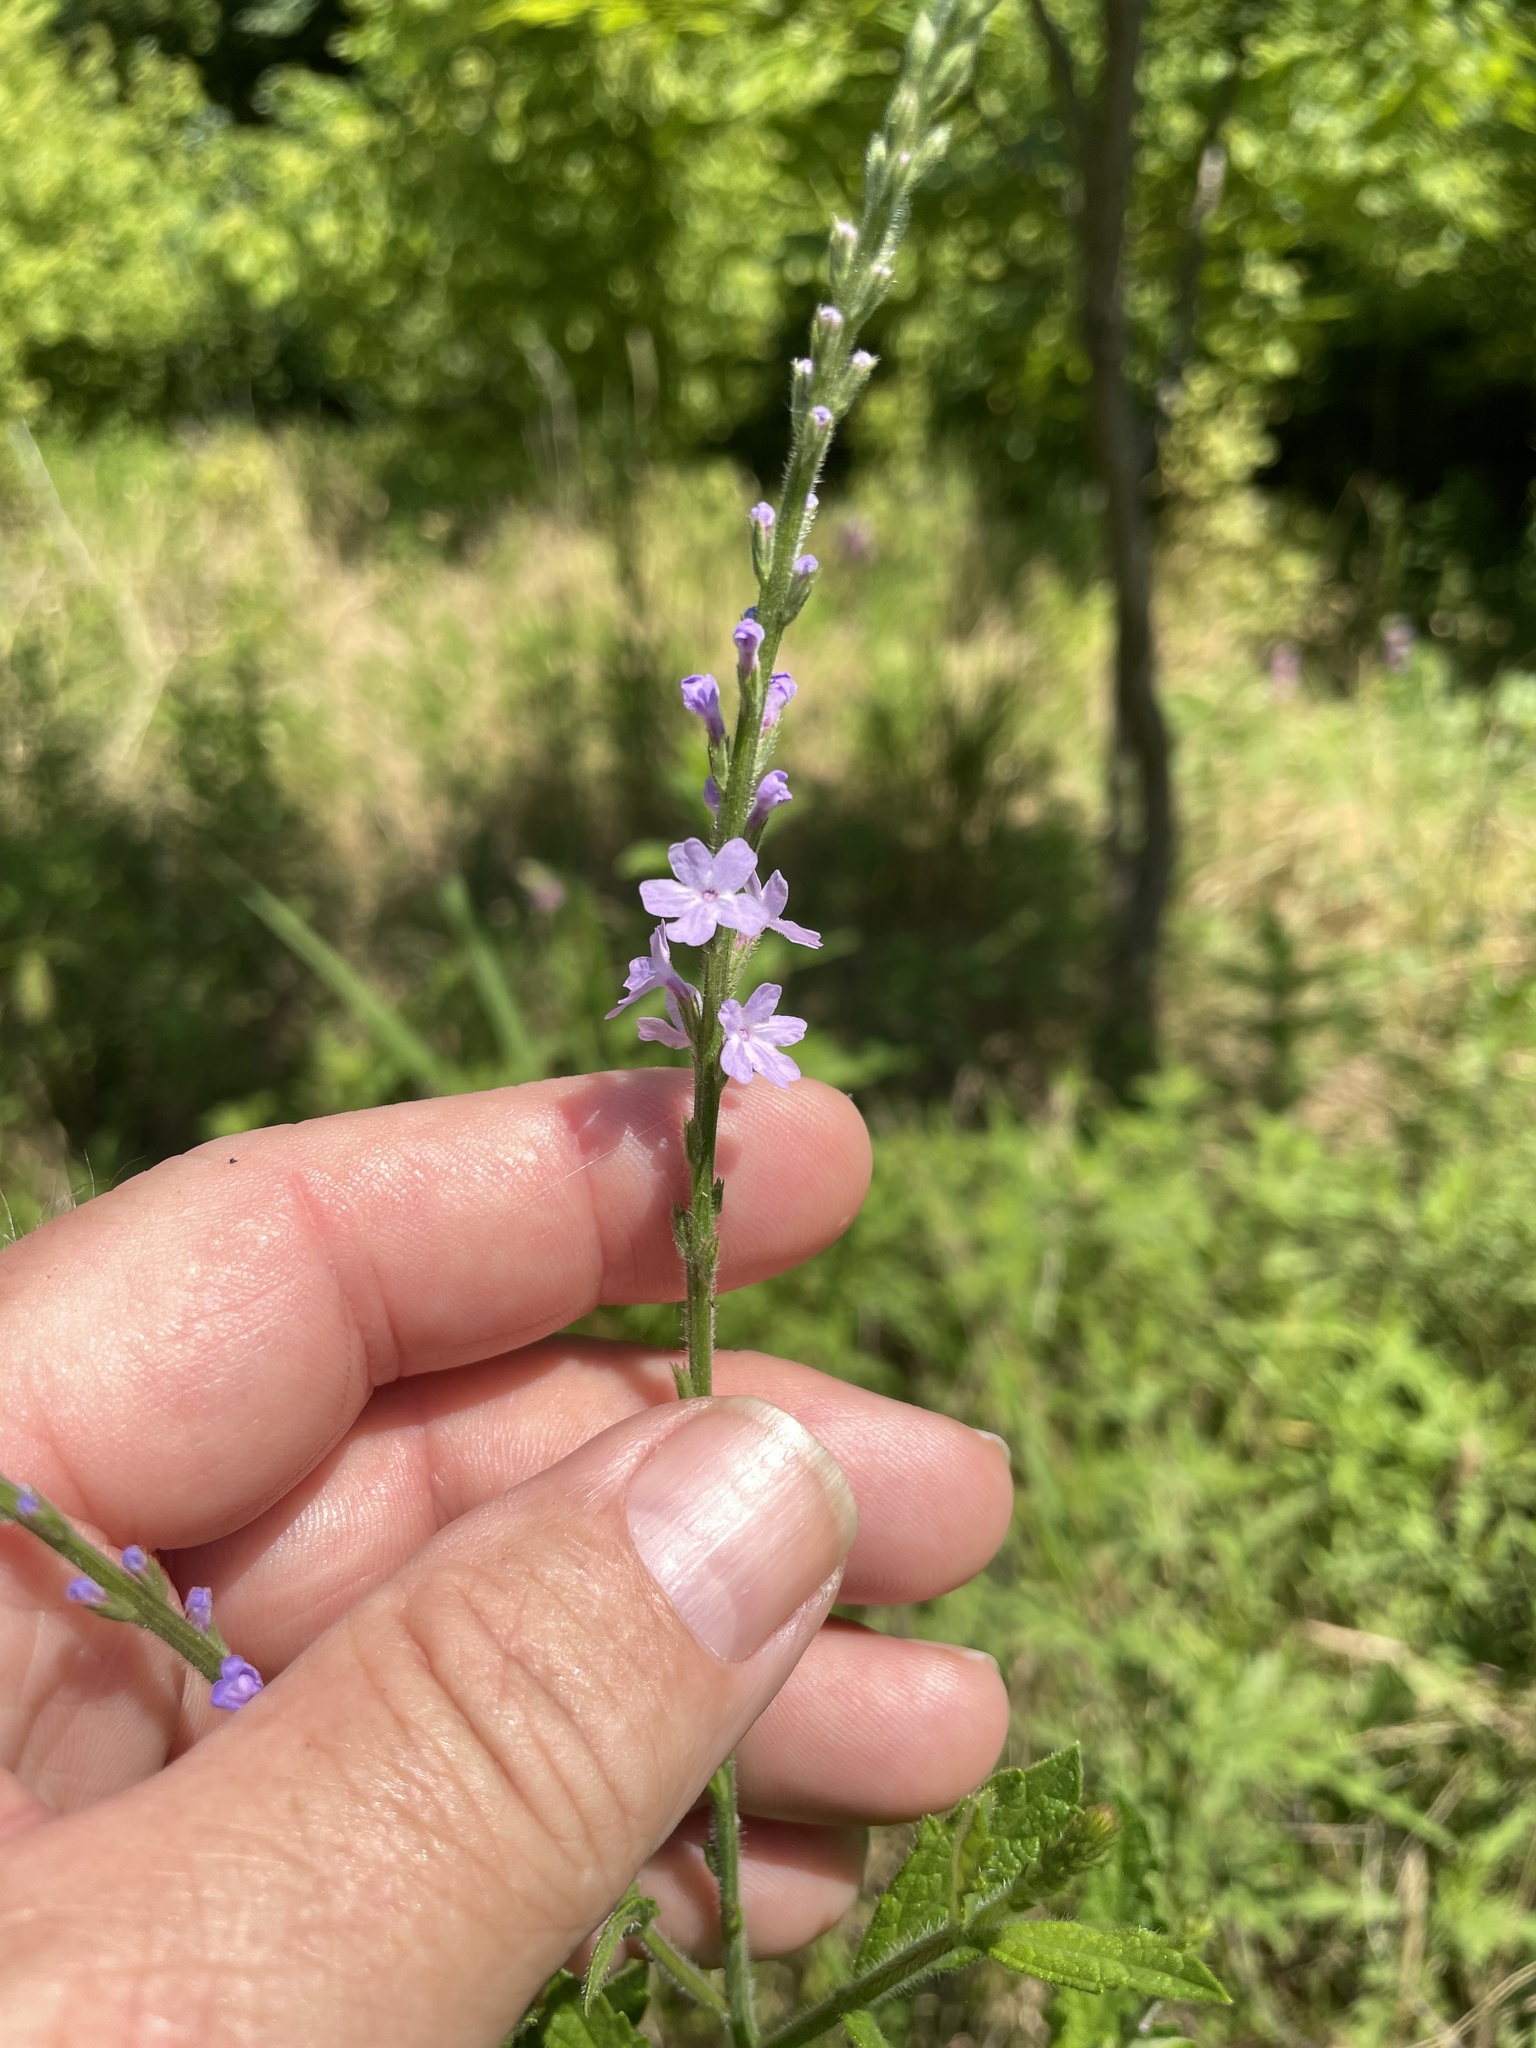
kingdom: Plantae
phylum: Tracheophyta
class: Magnoliopsida
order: Lamiales
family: Verbenaceae
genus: Verbena
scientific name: Verbena xutha
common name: Gulf vervain
